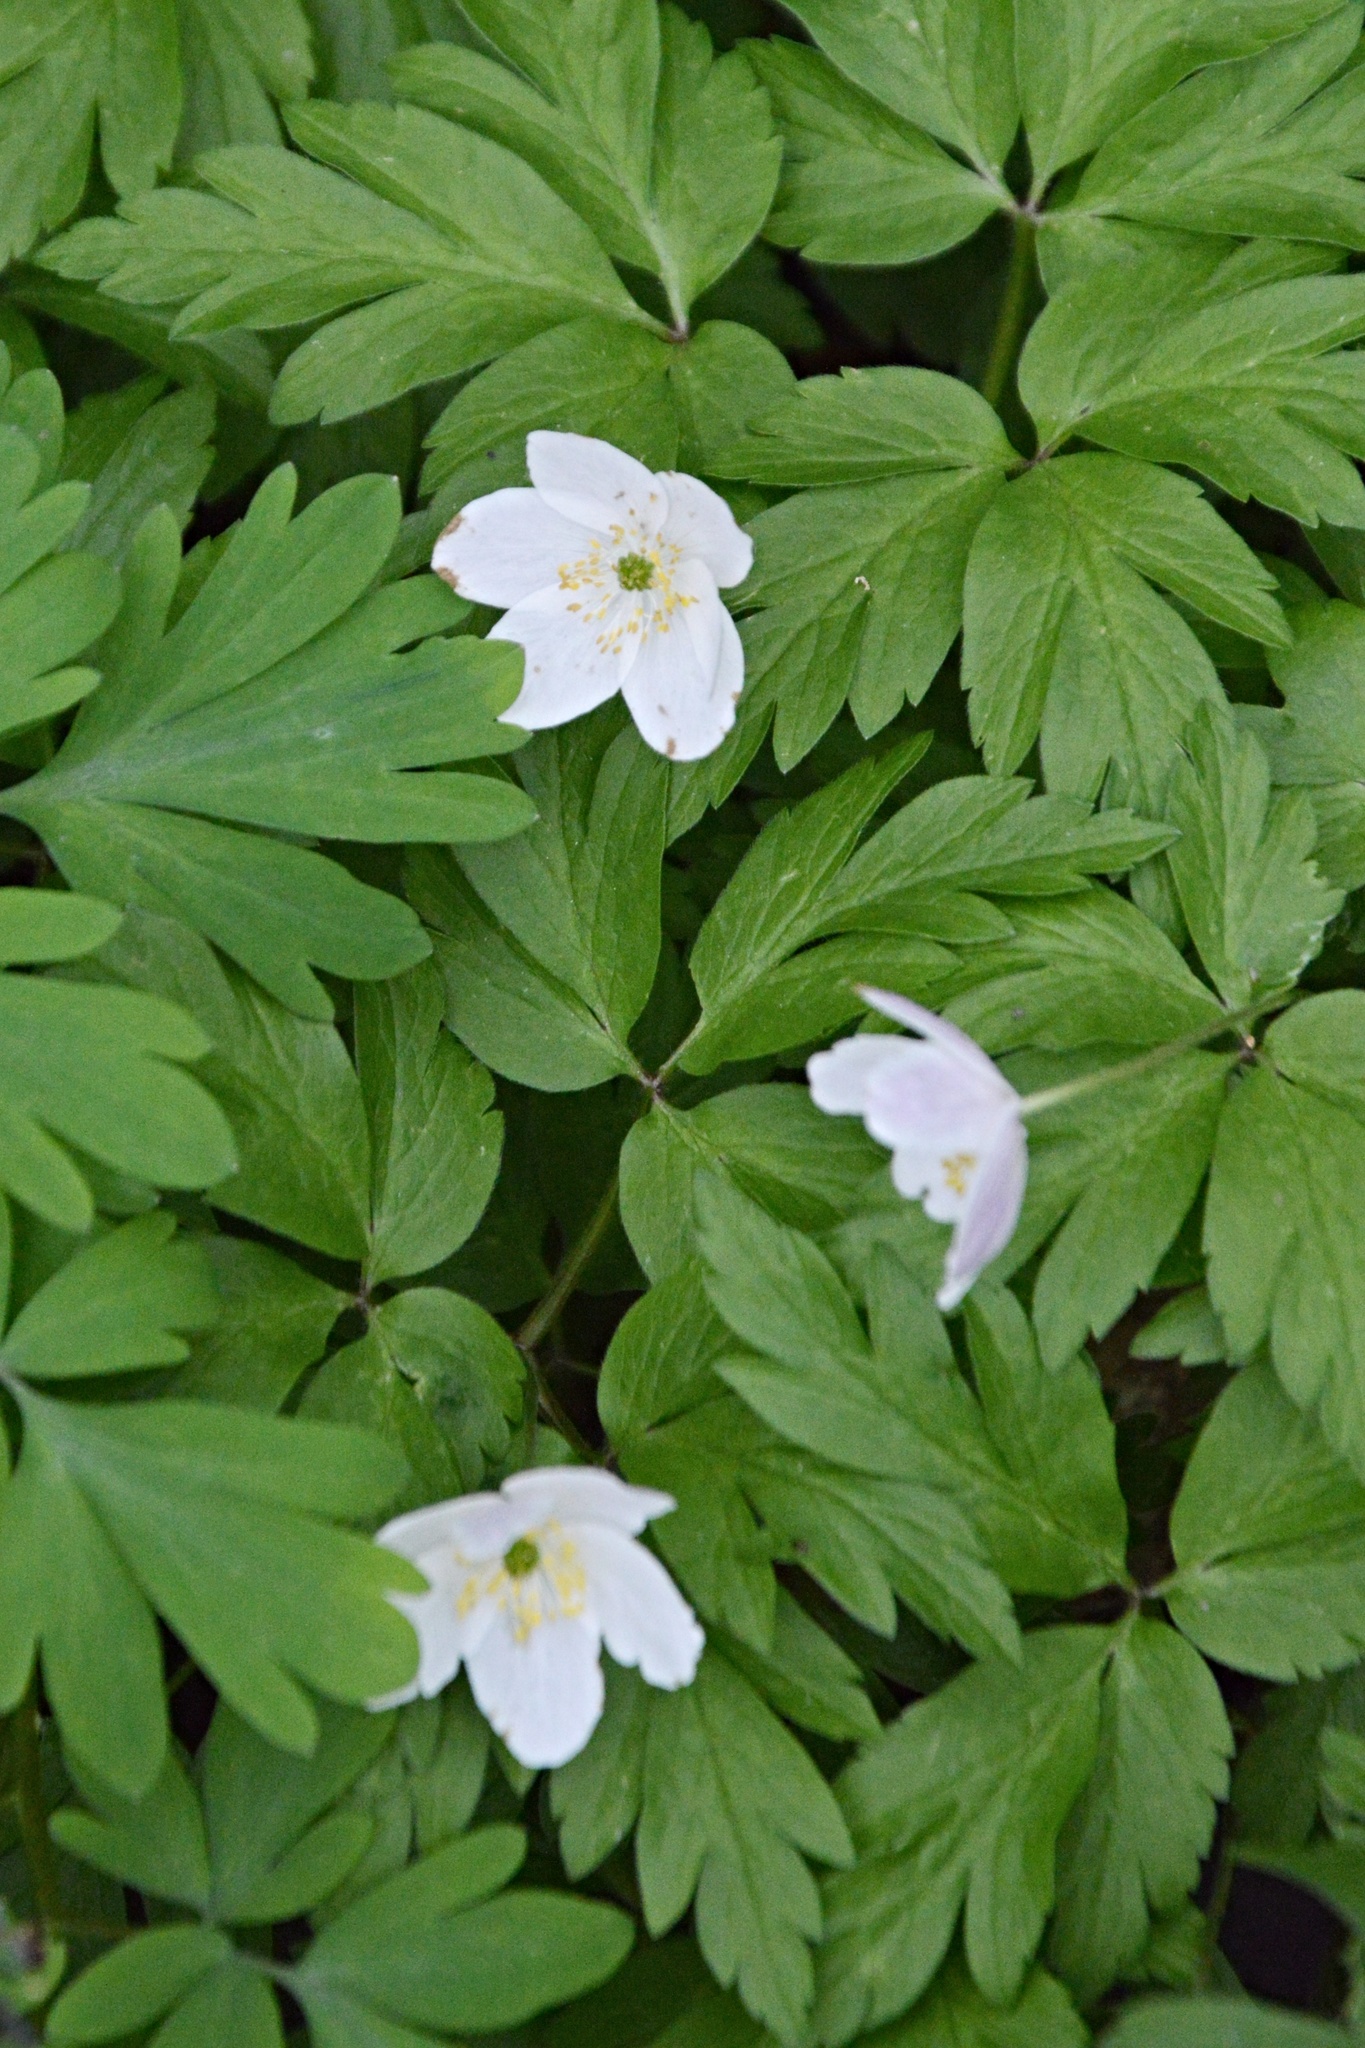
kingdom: Plantae
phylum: Tracheophyta
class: Magnoliopsida
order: Ranunculales
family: Ranunculaceae
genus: Anemone
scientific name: Anemone nemorosa
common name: Wood anemone
